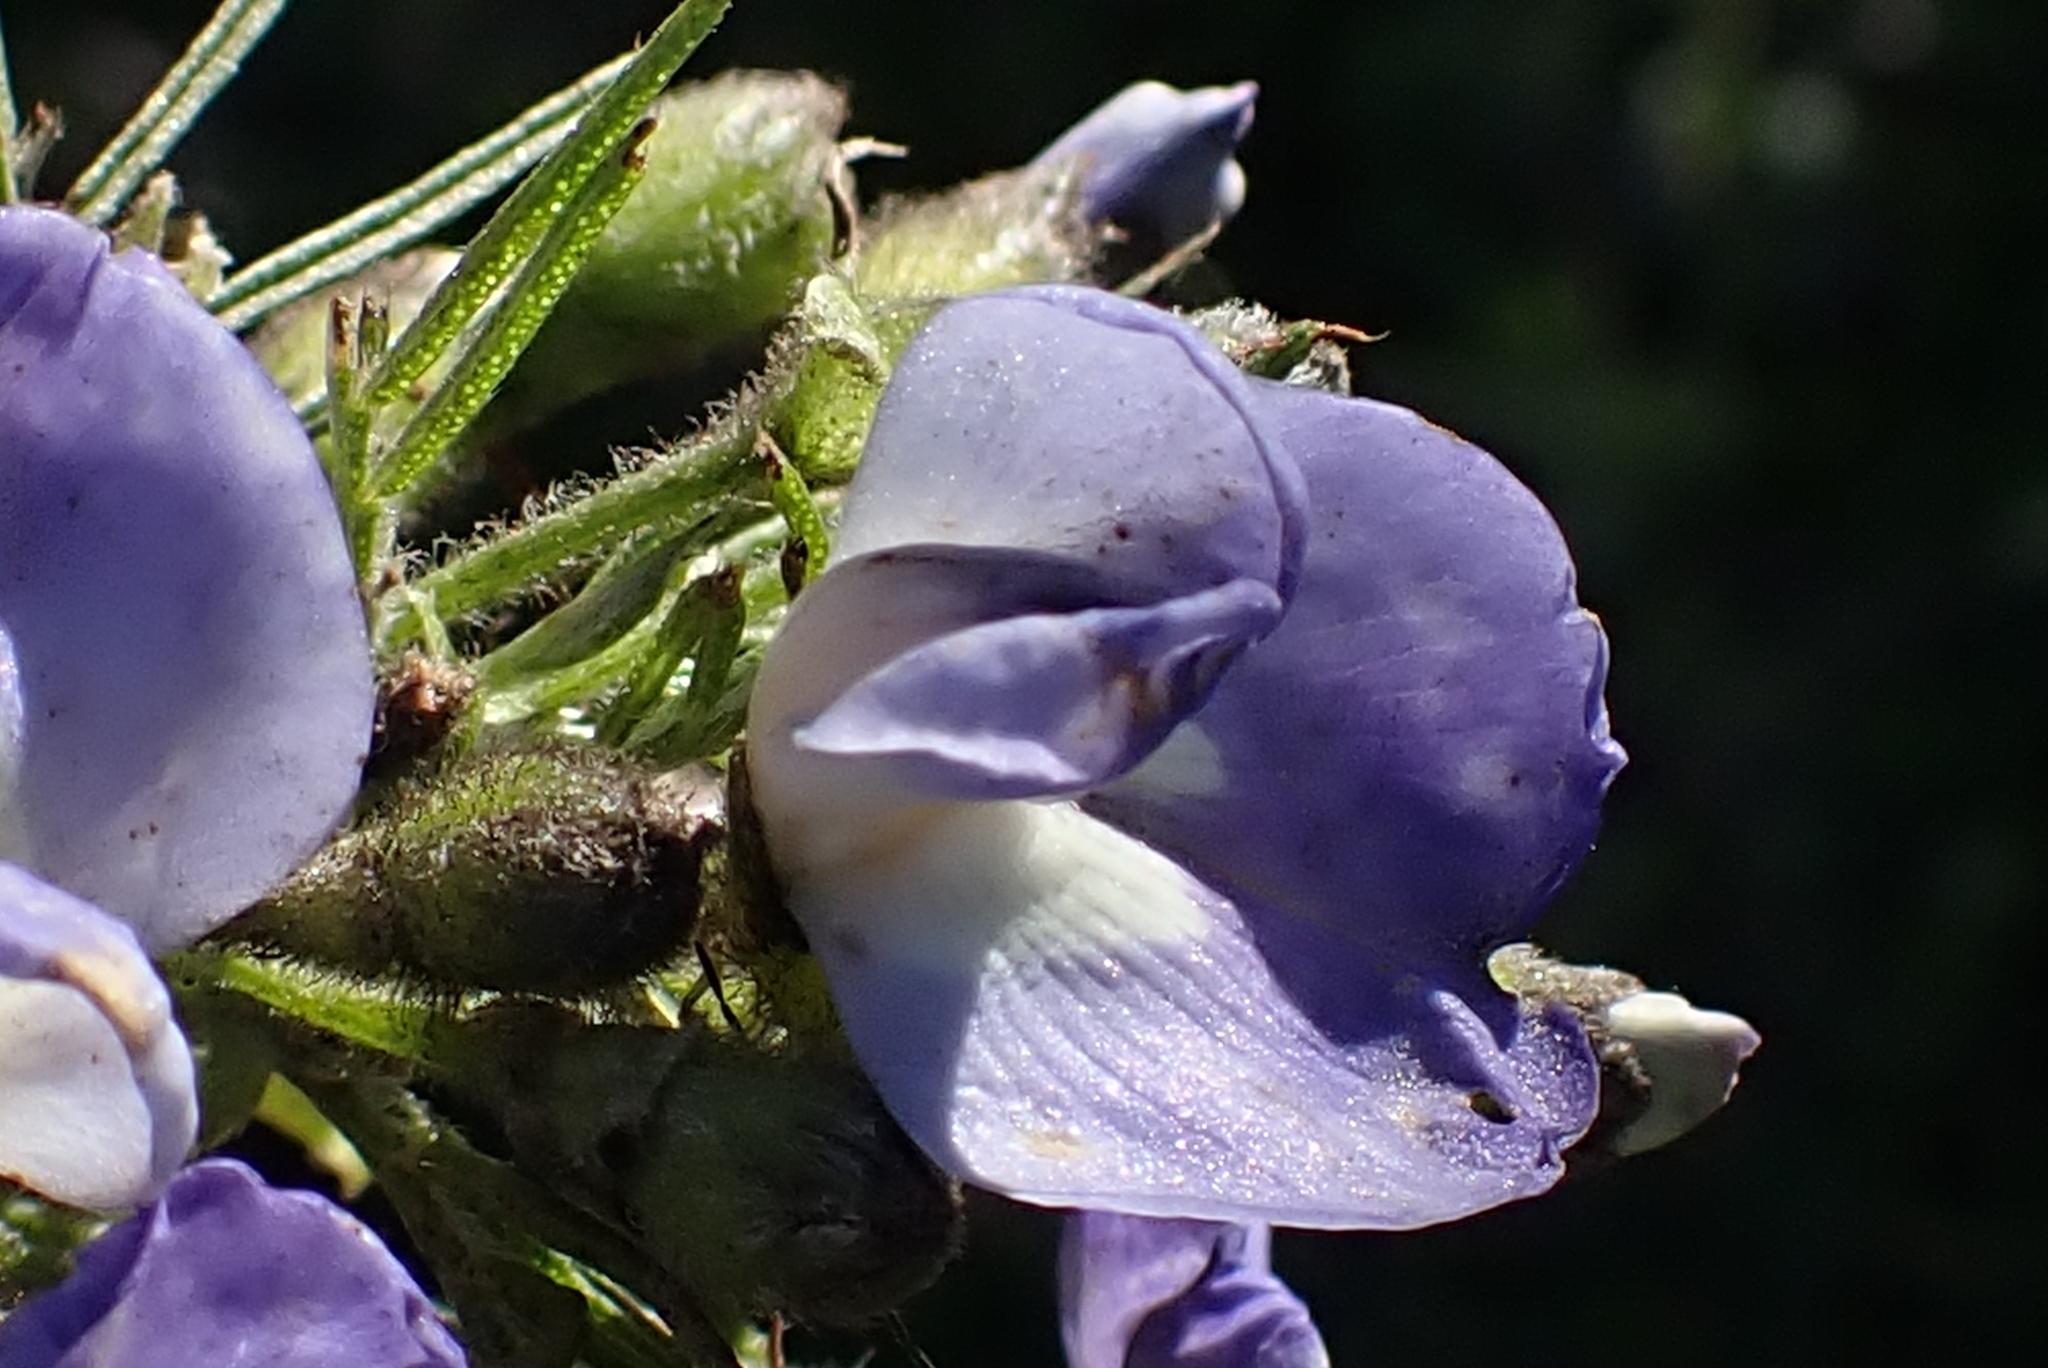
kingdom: Plantae
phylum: Tracheophyta
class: Magnoliopsida
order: Fabales
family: Fabaceae
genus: Psoralea
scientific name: Psoralea affinis
